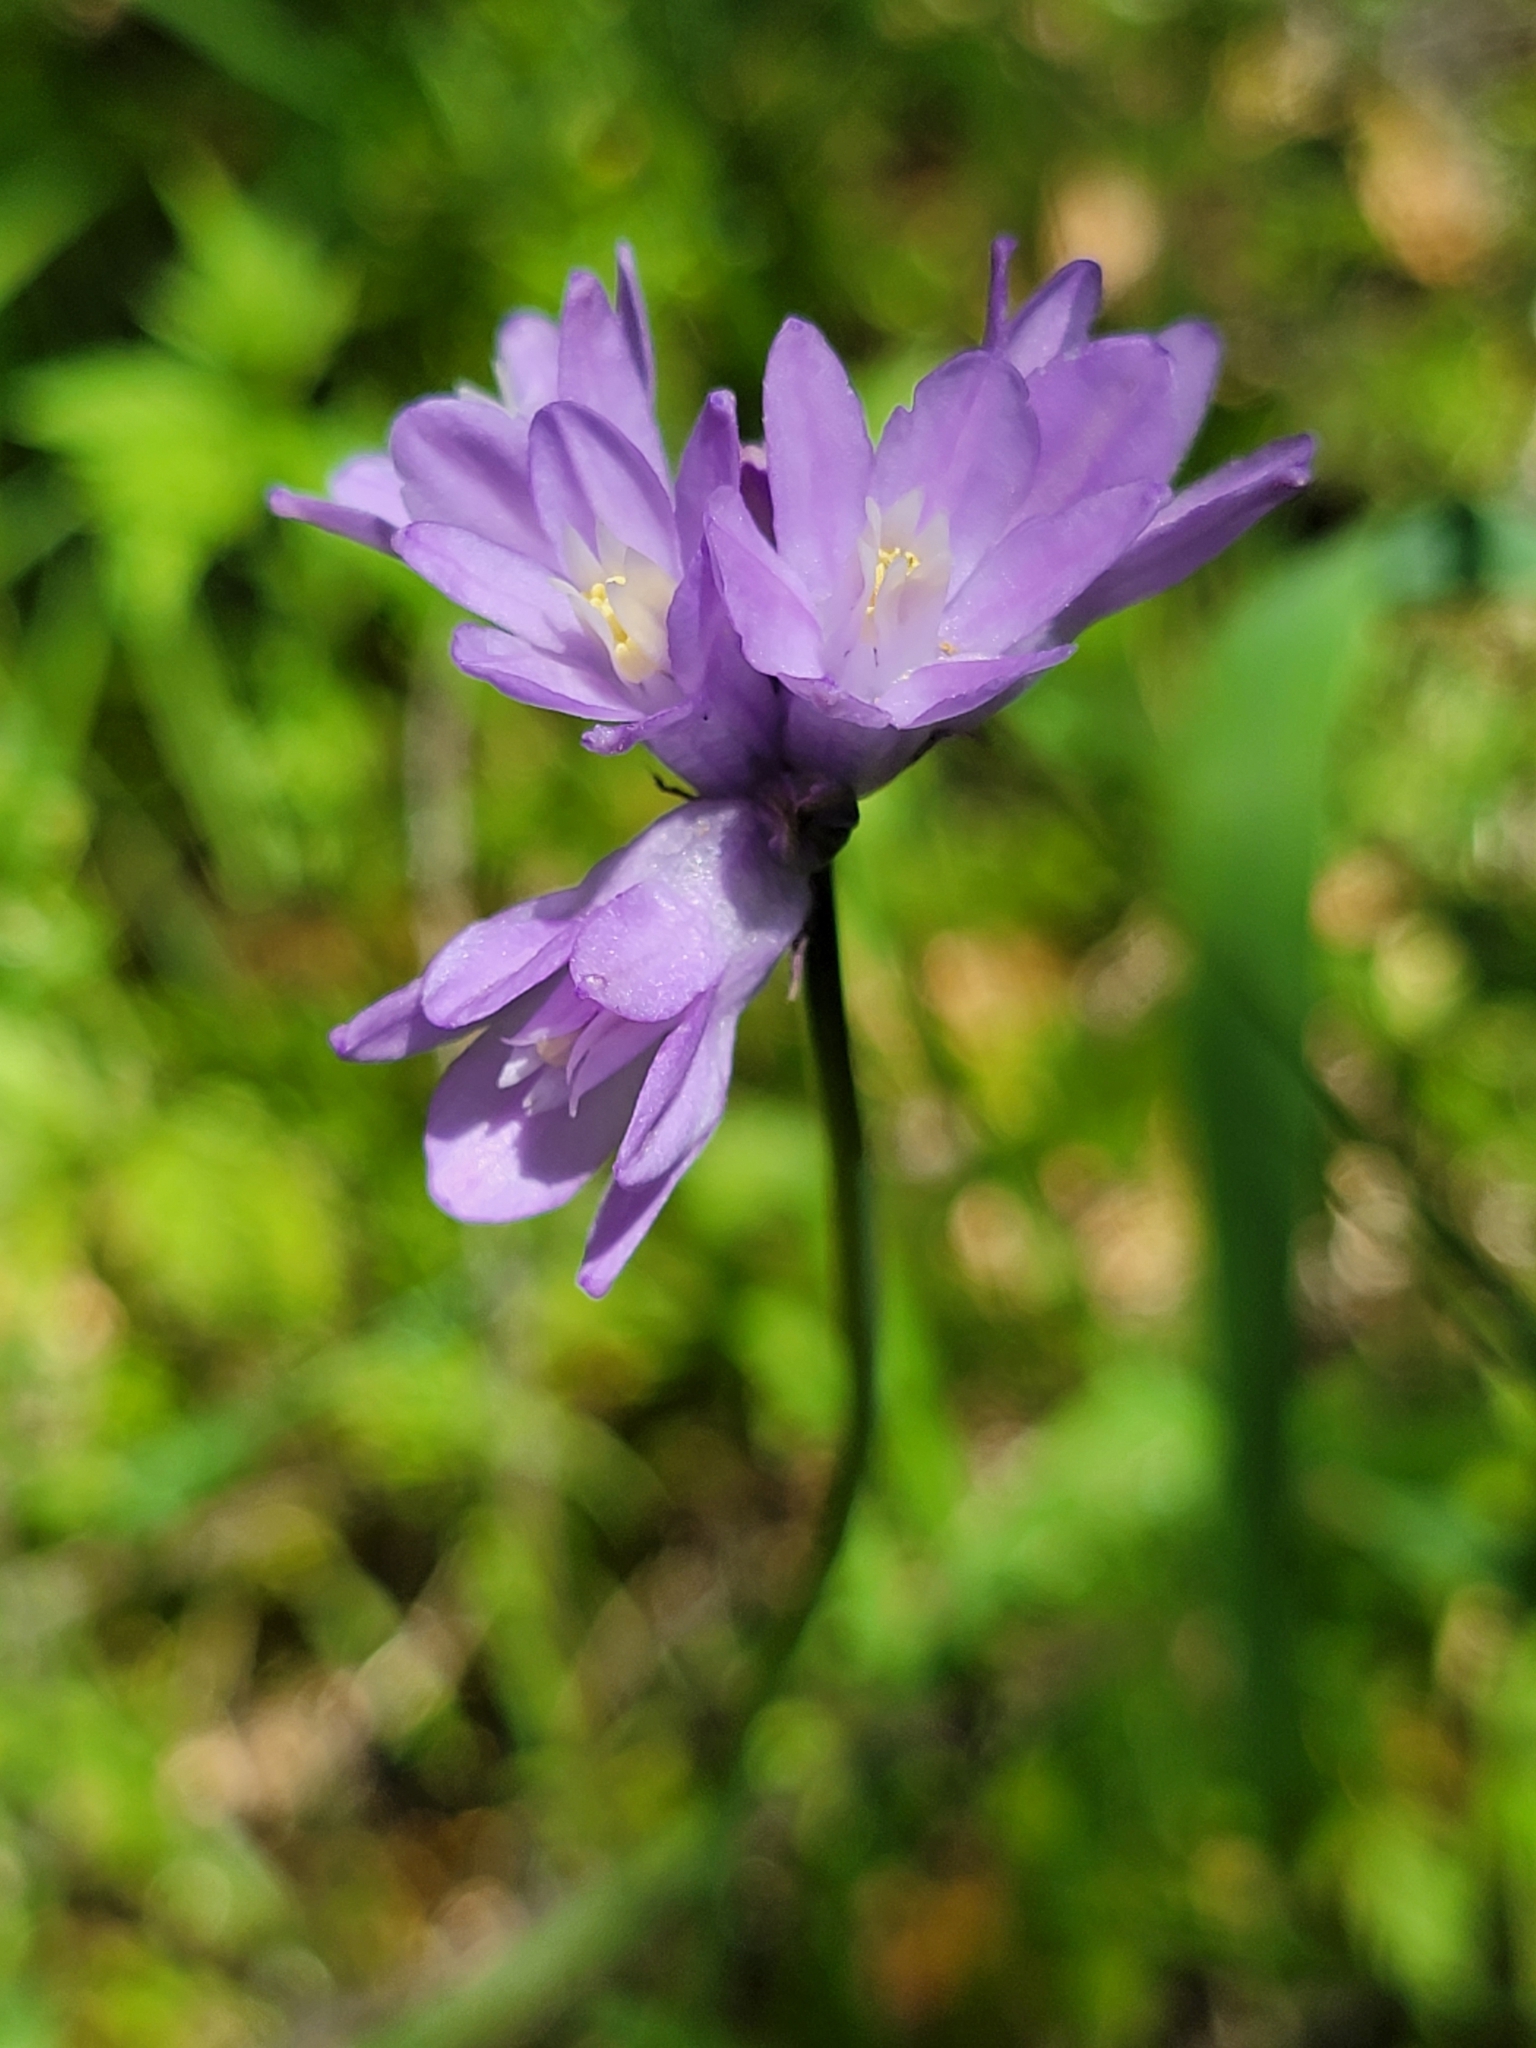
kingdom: Plantae
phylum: Tracheophyta
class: Liliopsida
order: Asparagales
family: Asparagaceae
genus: Dipterostemon
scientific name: Dipterostemon capitatus
